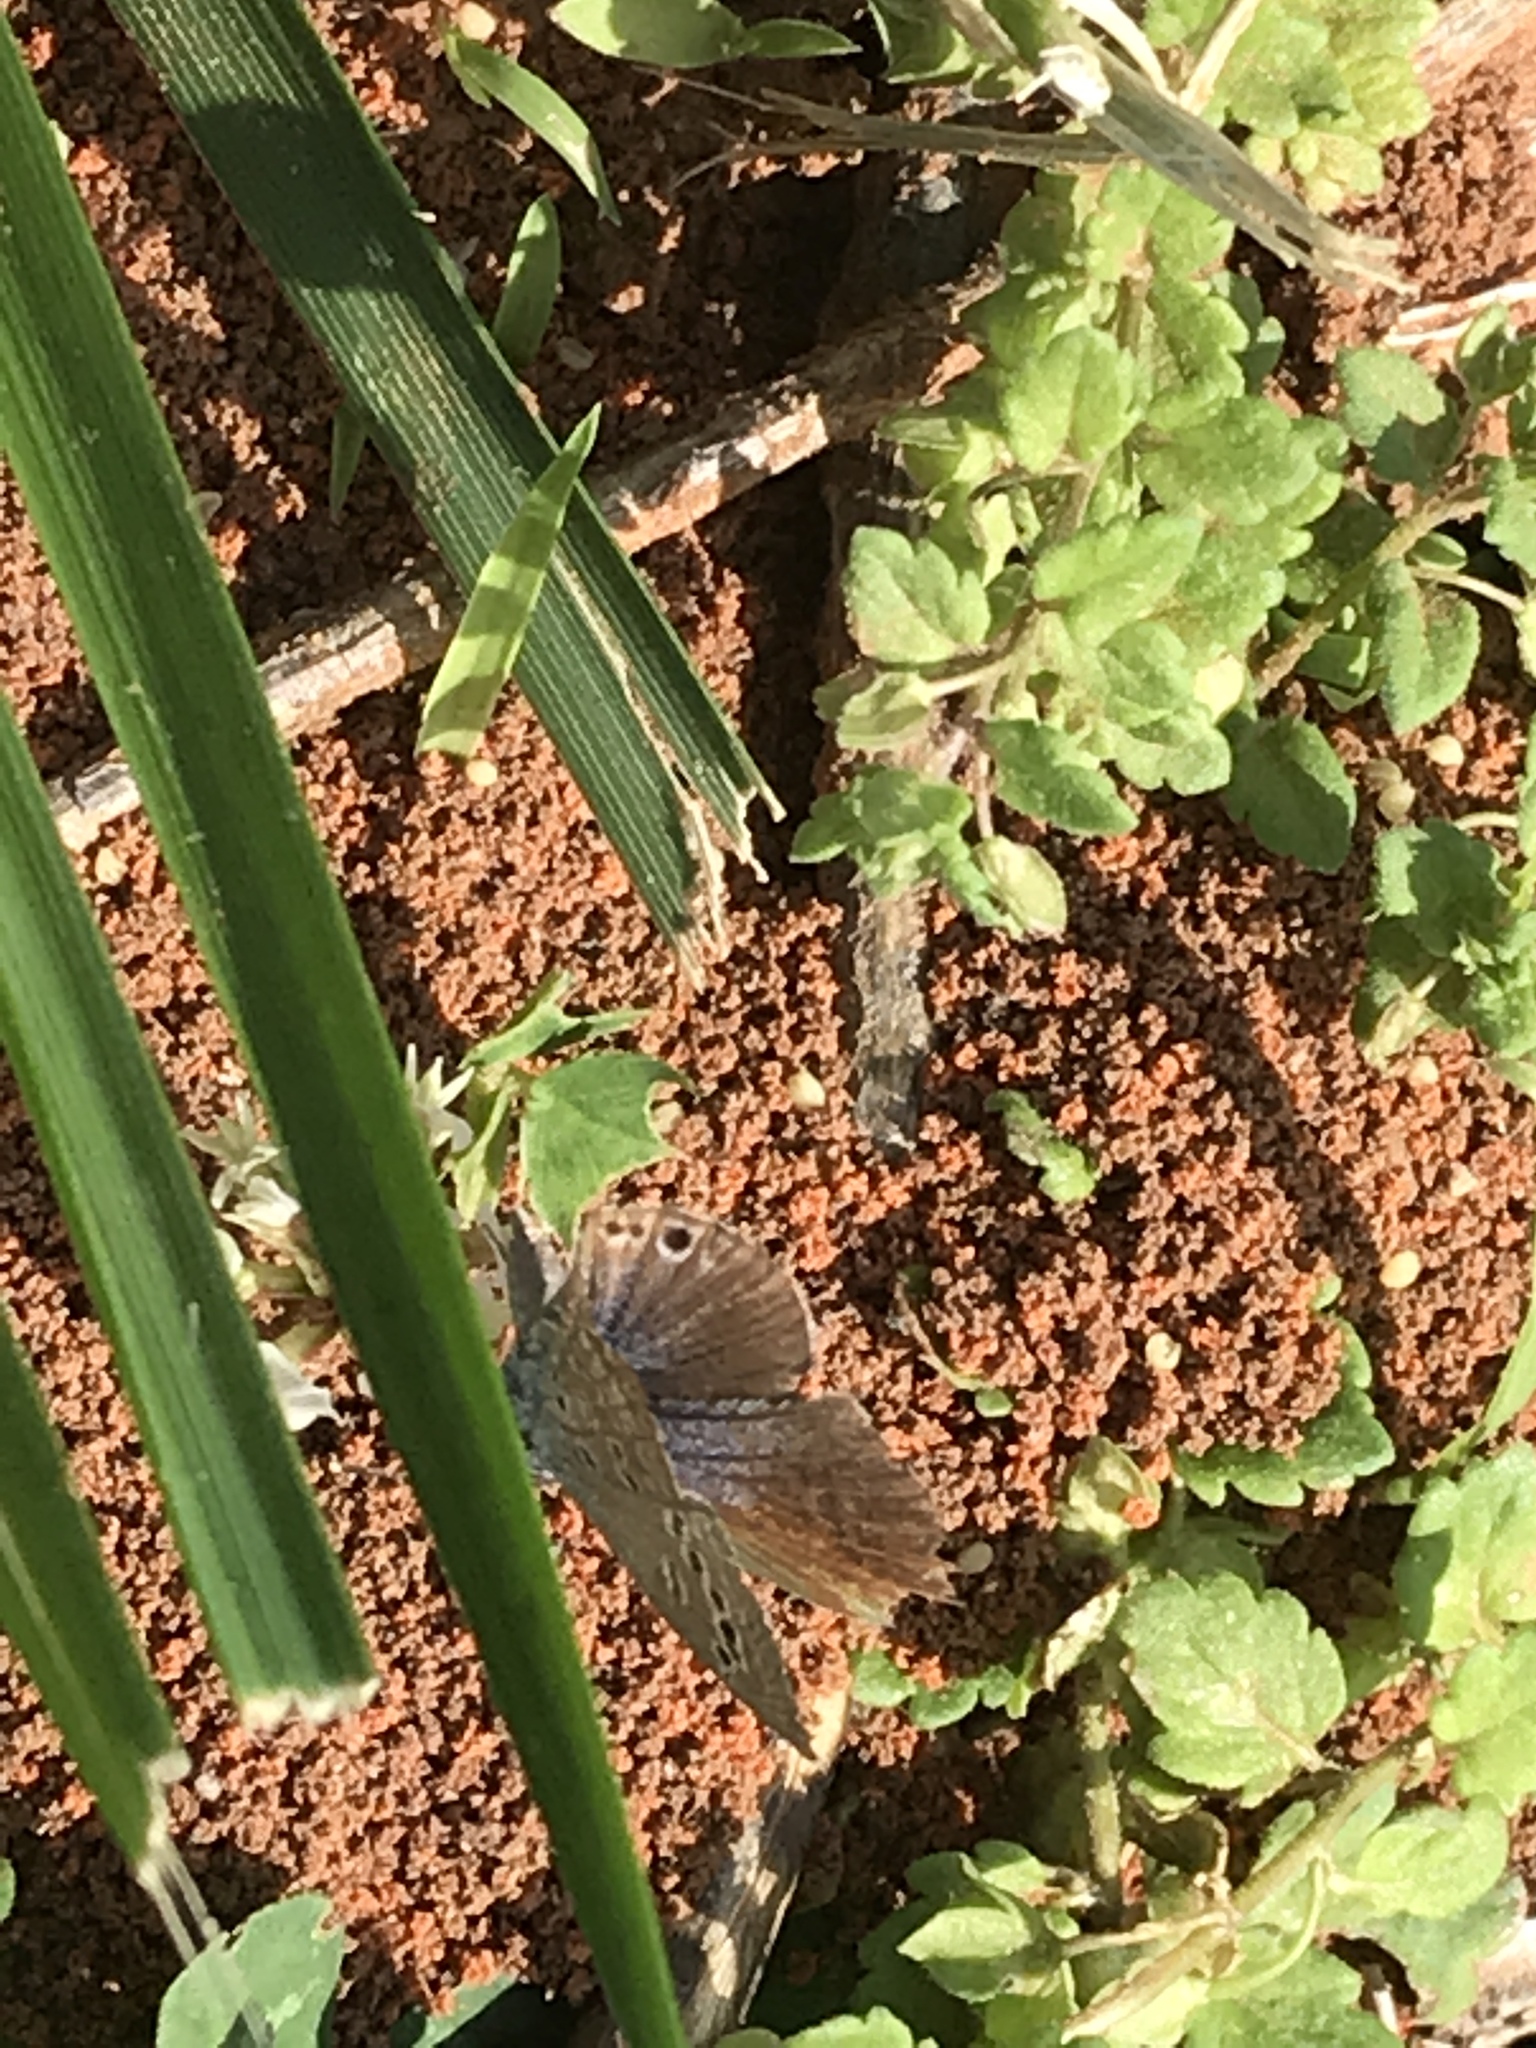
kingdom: Animalia
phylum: Arthropoda
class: Insecta
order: Lepidoptera
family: Lycaenidae
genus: Echinargus
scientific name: Echinargus isola
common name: Reakirt's blue
